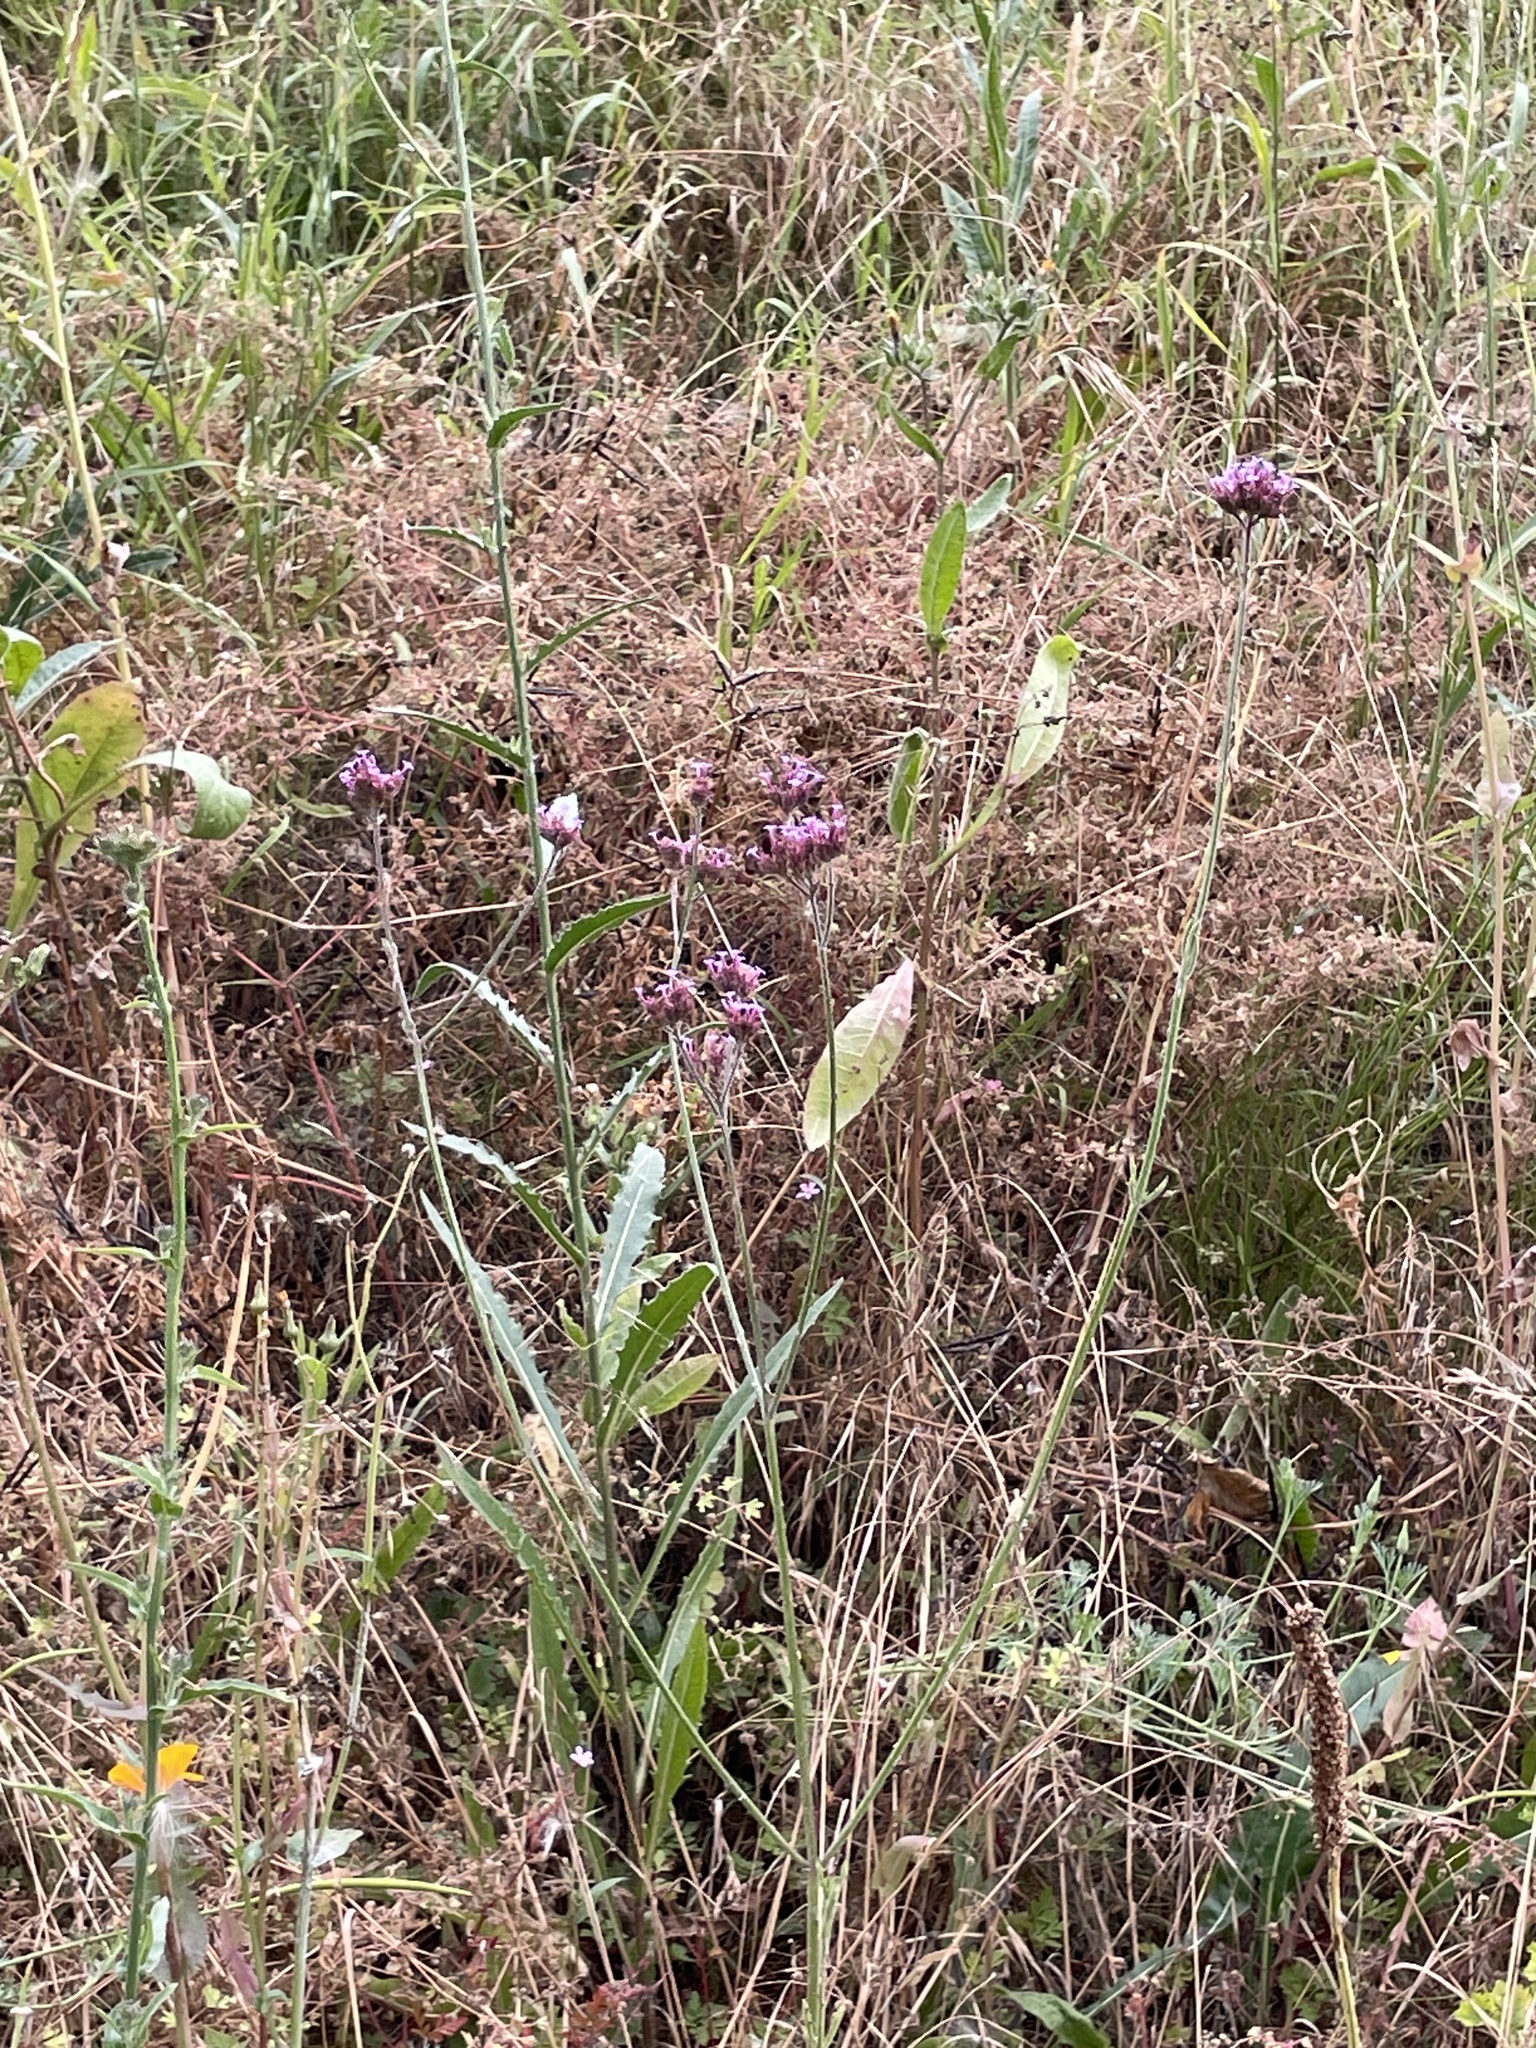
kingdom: Plantae
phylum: Tracheophyta
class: Magnoliopsida
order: Lamiales
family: Verbenaceae
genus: Verbena
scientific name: Verbena bonariensis
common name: Purpletop vervain
